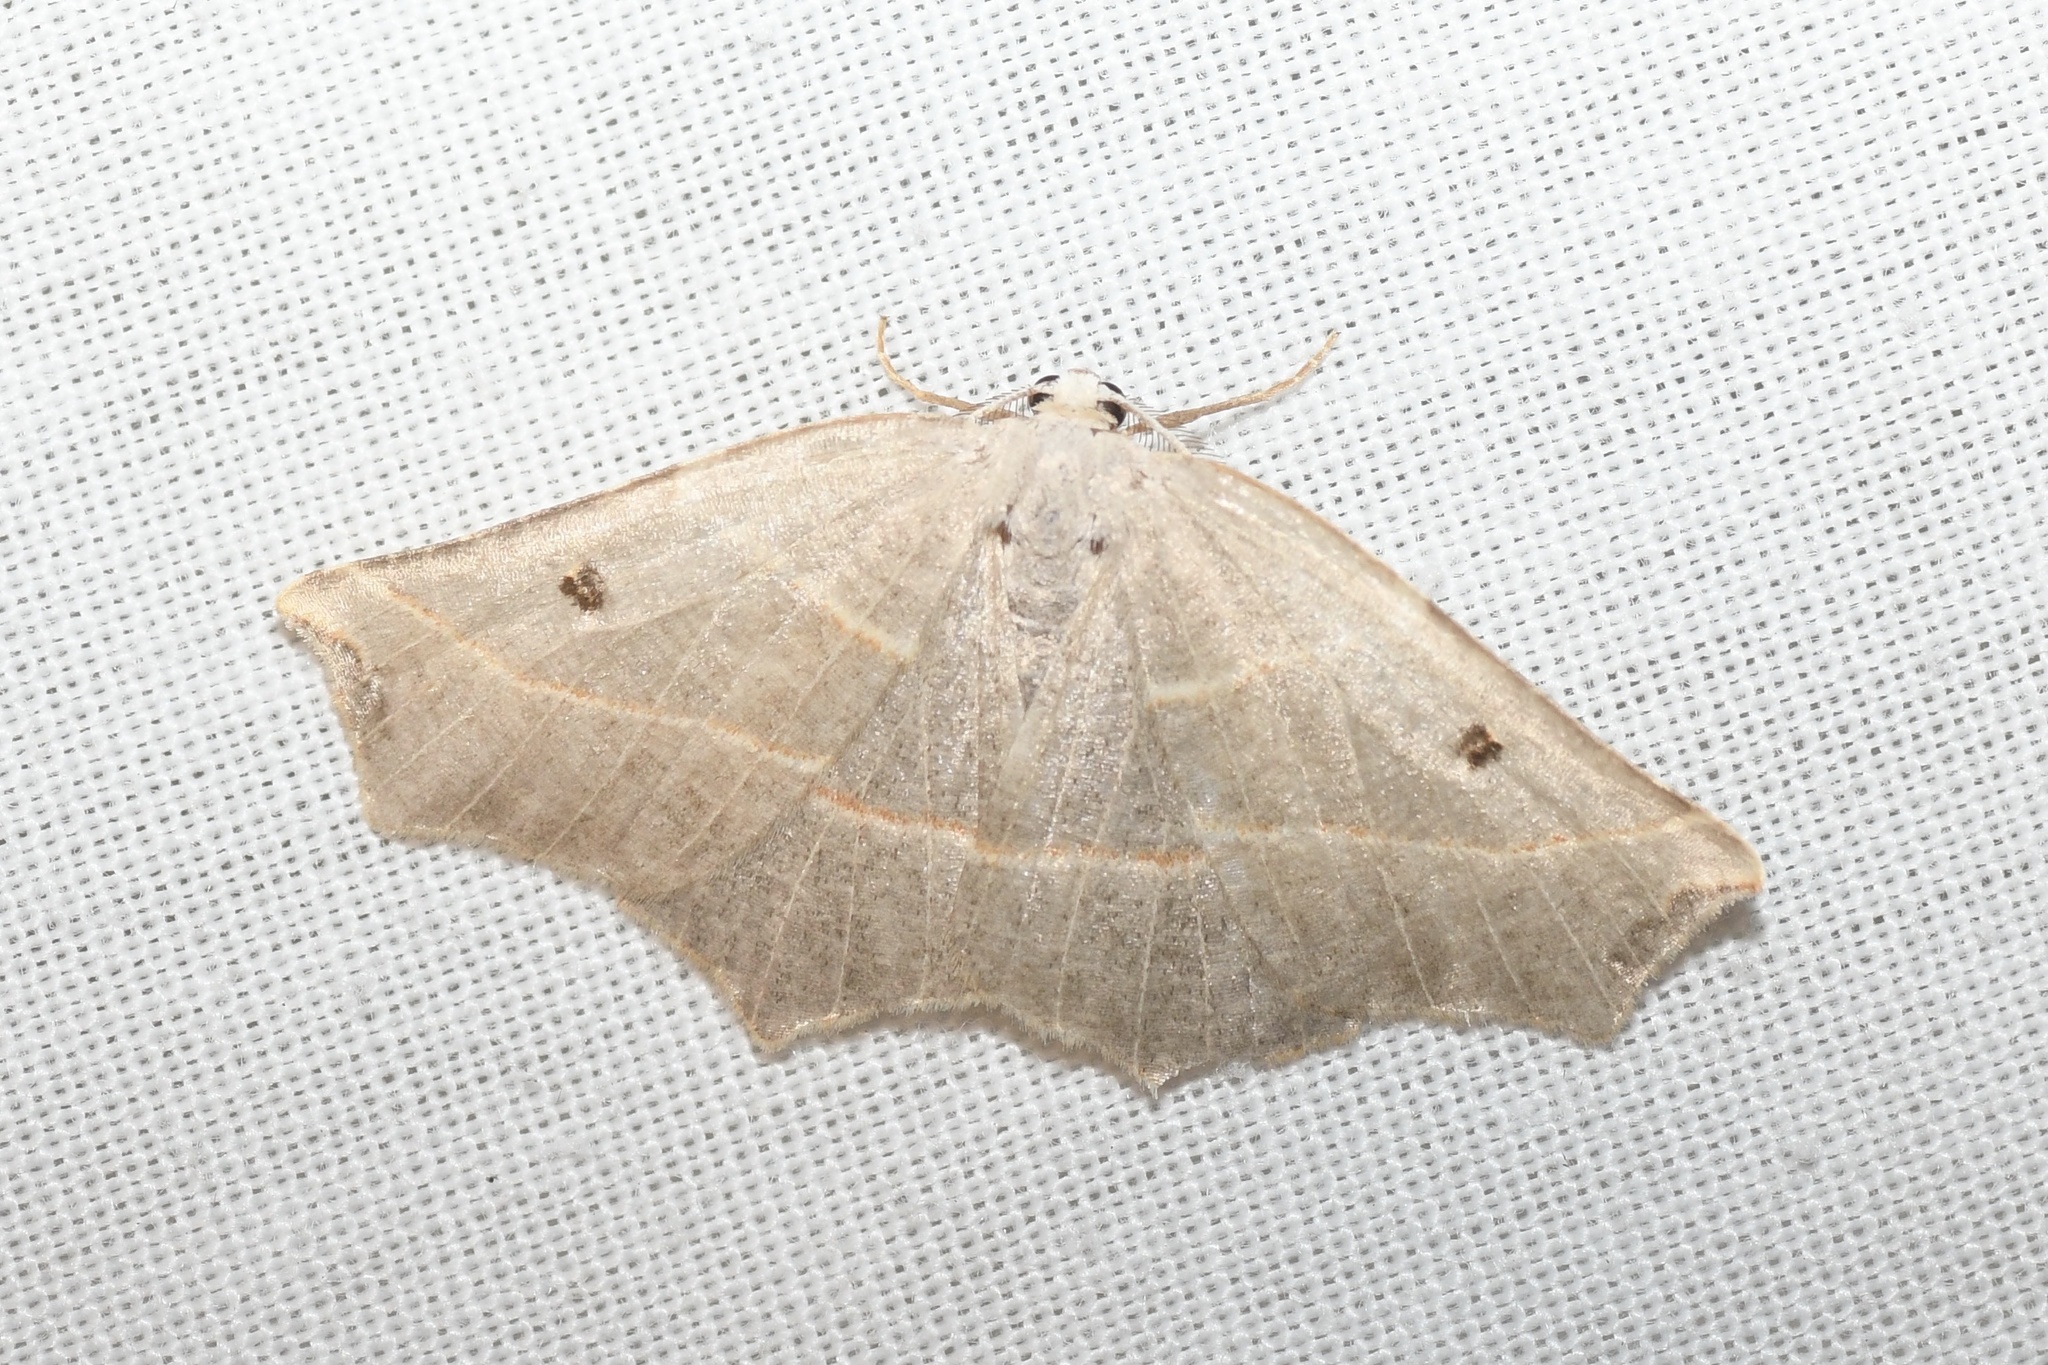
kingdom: Animalia
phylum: Arthropoda
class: Insecta
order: Lepidoptera
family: Geometridae
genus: Metanema
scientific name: Metanema inatomaria
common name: Pale metanema
